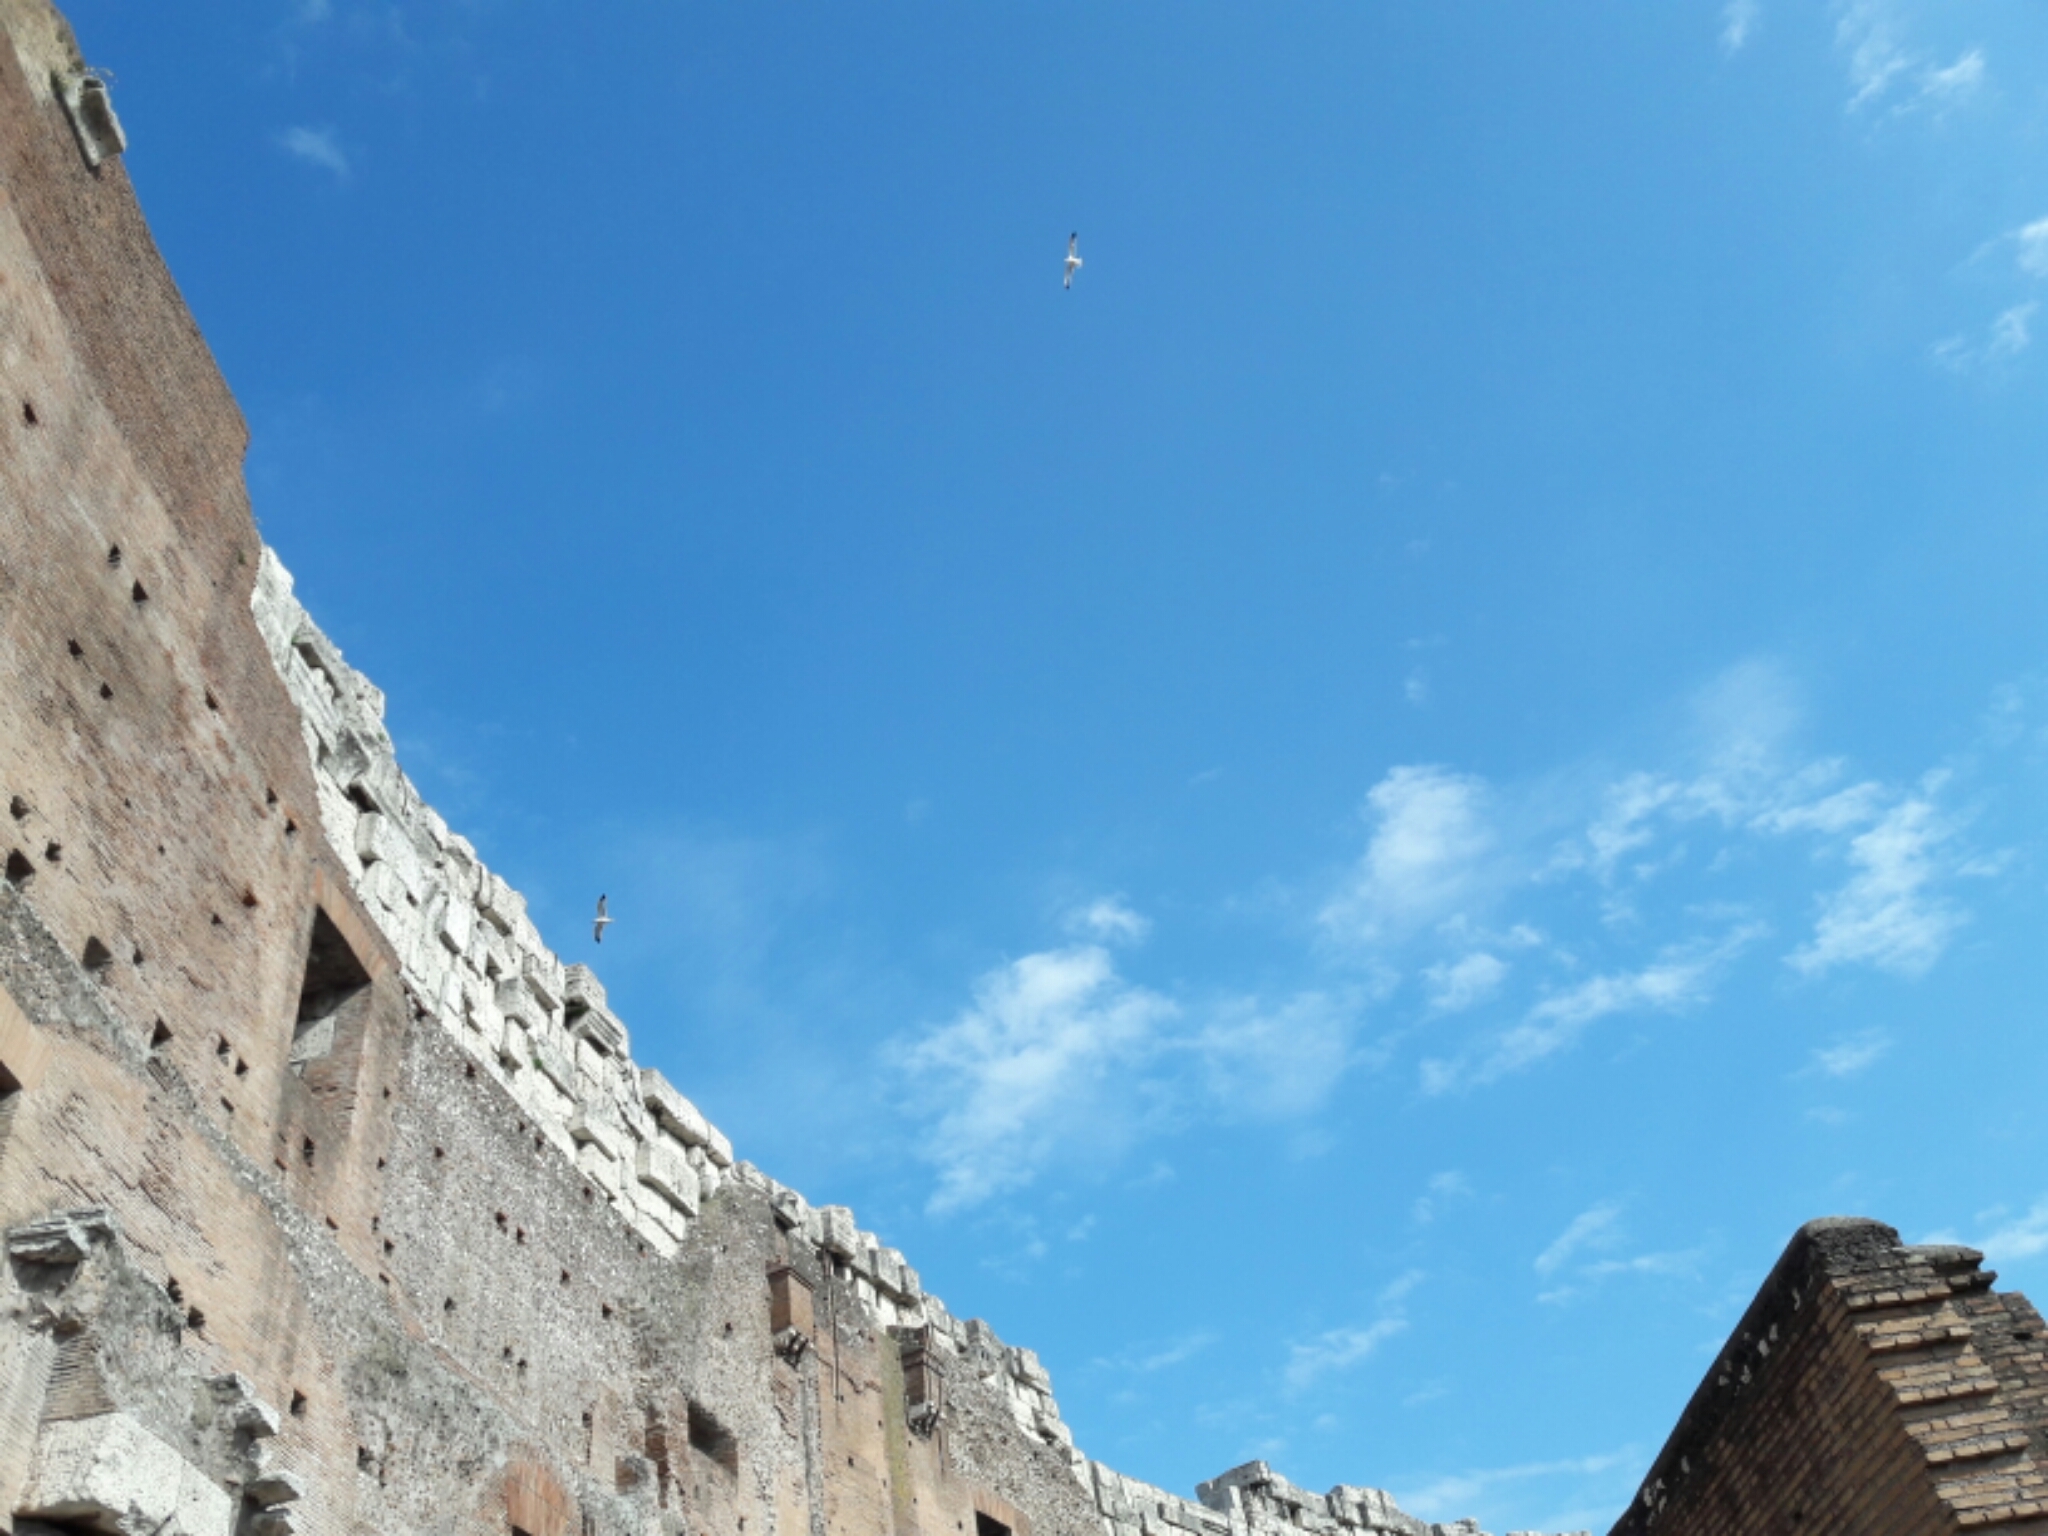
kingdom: Animalia
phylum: Chordata
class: Aves
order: Charadriiformes
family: Laridae
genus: Larus
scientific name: Larus michahellis
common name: Yellow-legged gull
